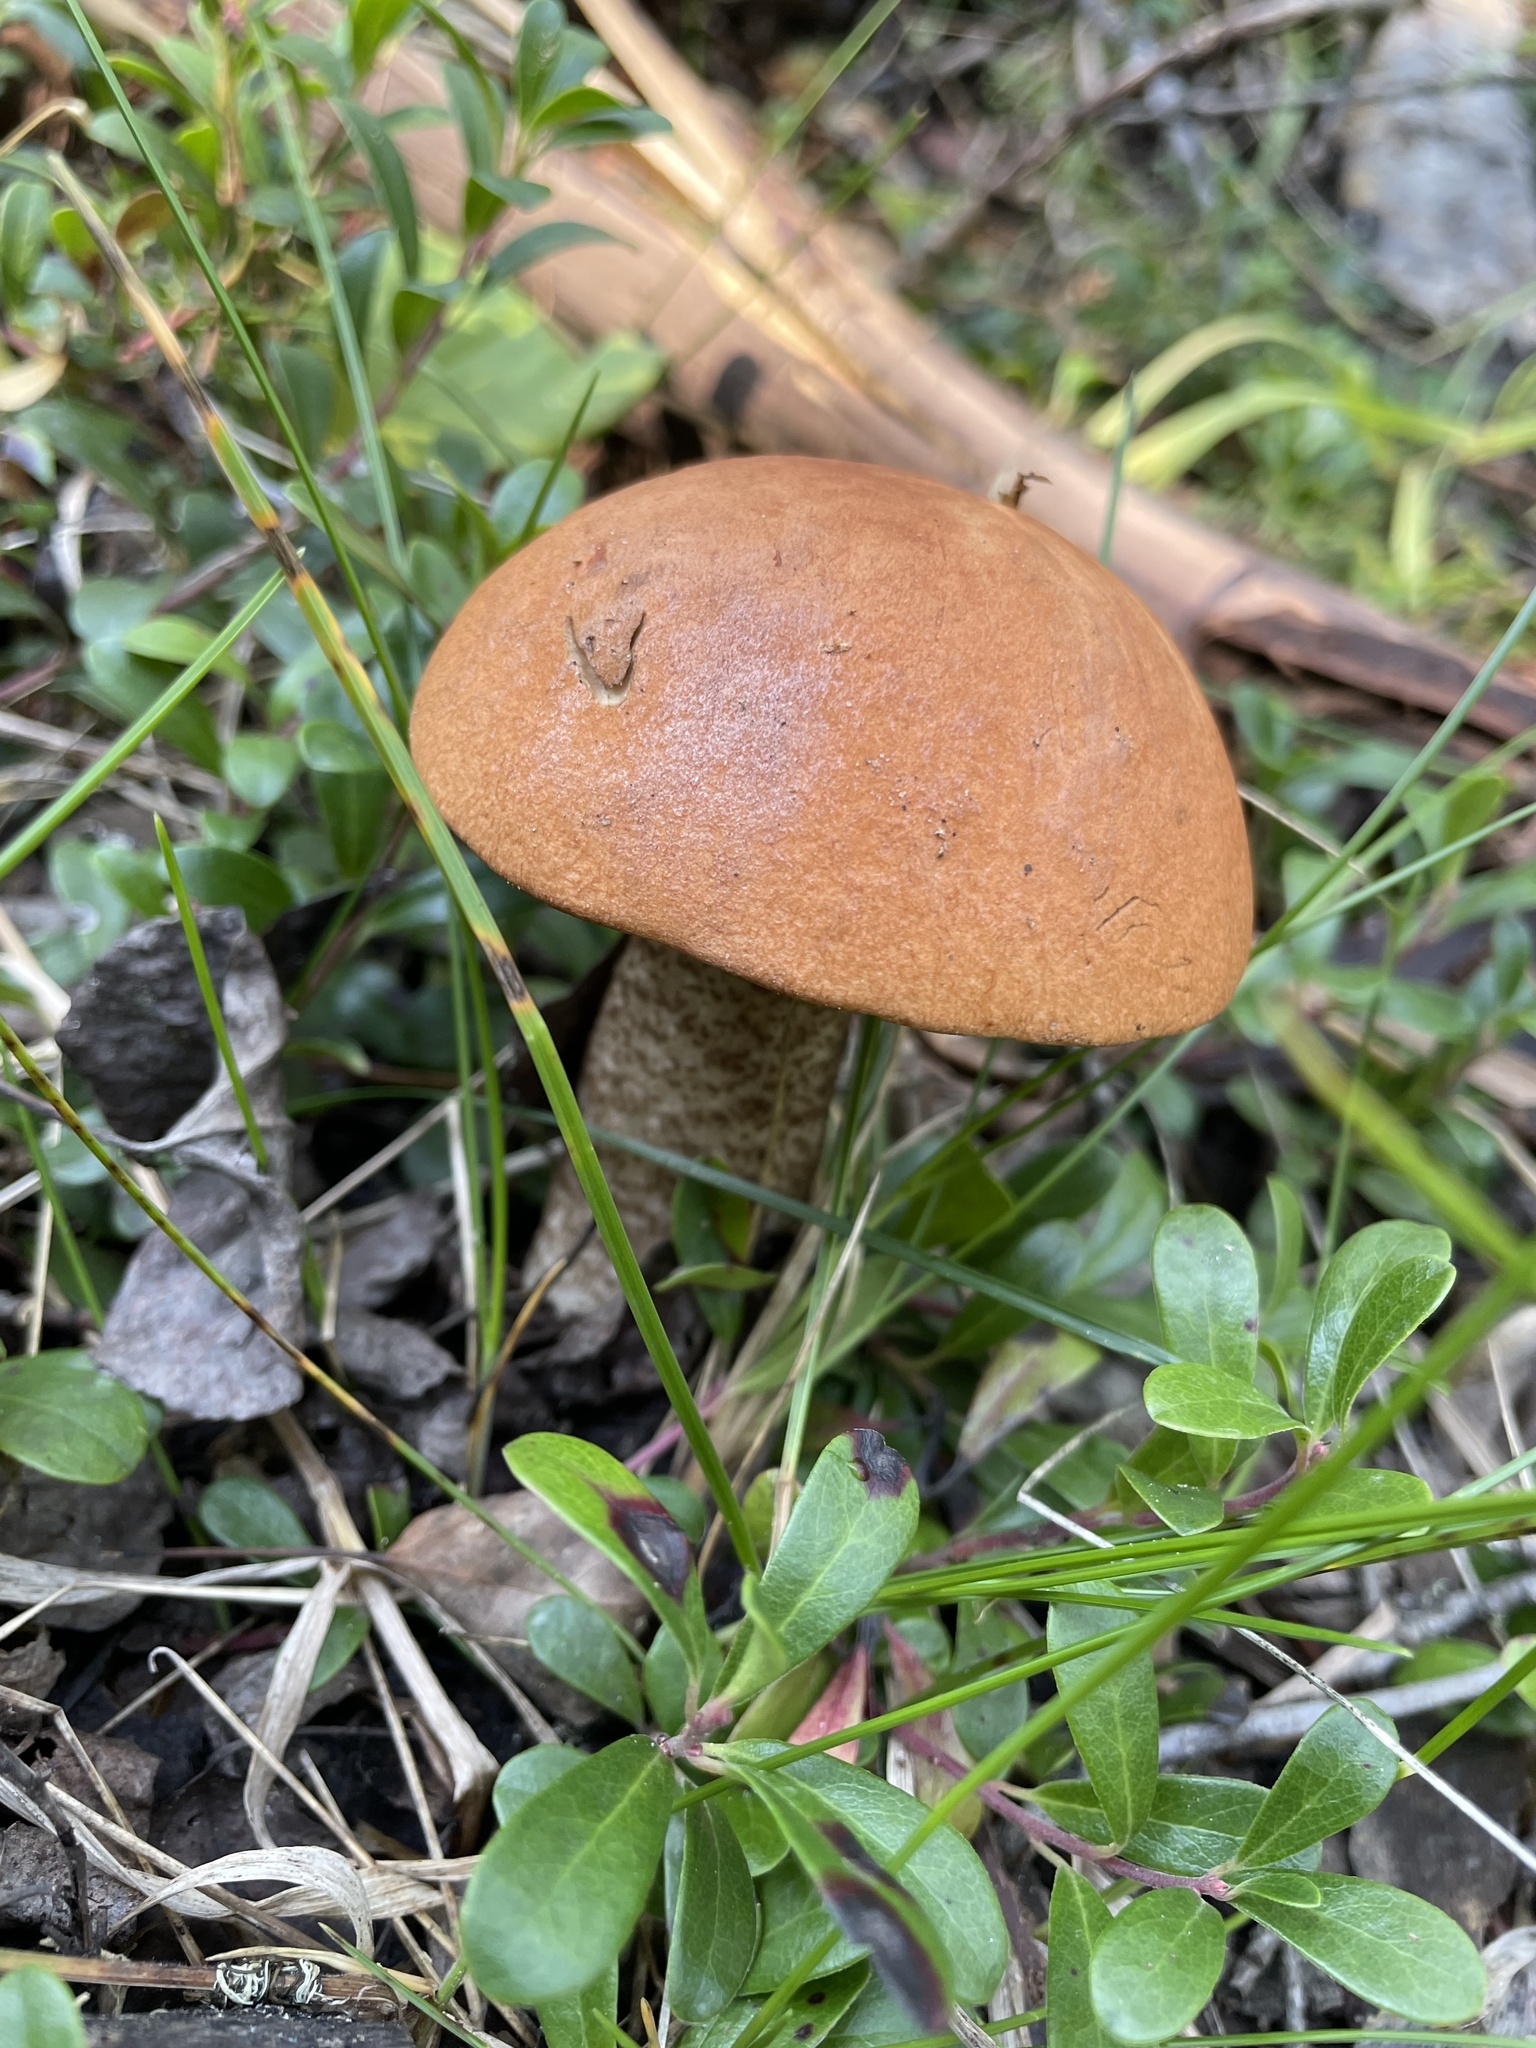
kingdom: Fungi
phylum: Basidiomycota
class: Agaricomycetes
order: Boletales
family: Boletaceae
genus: Leccinum
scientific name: Leccinum insigne
